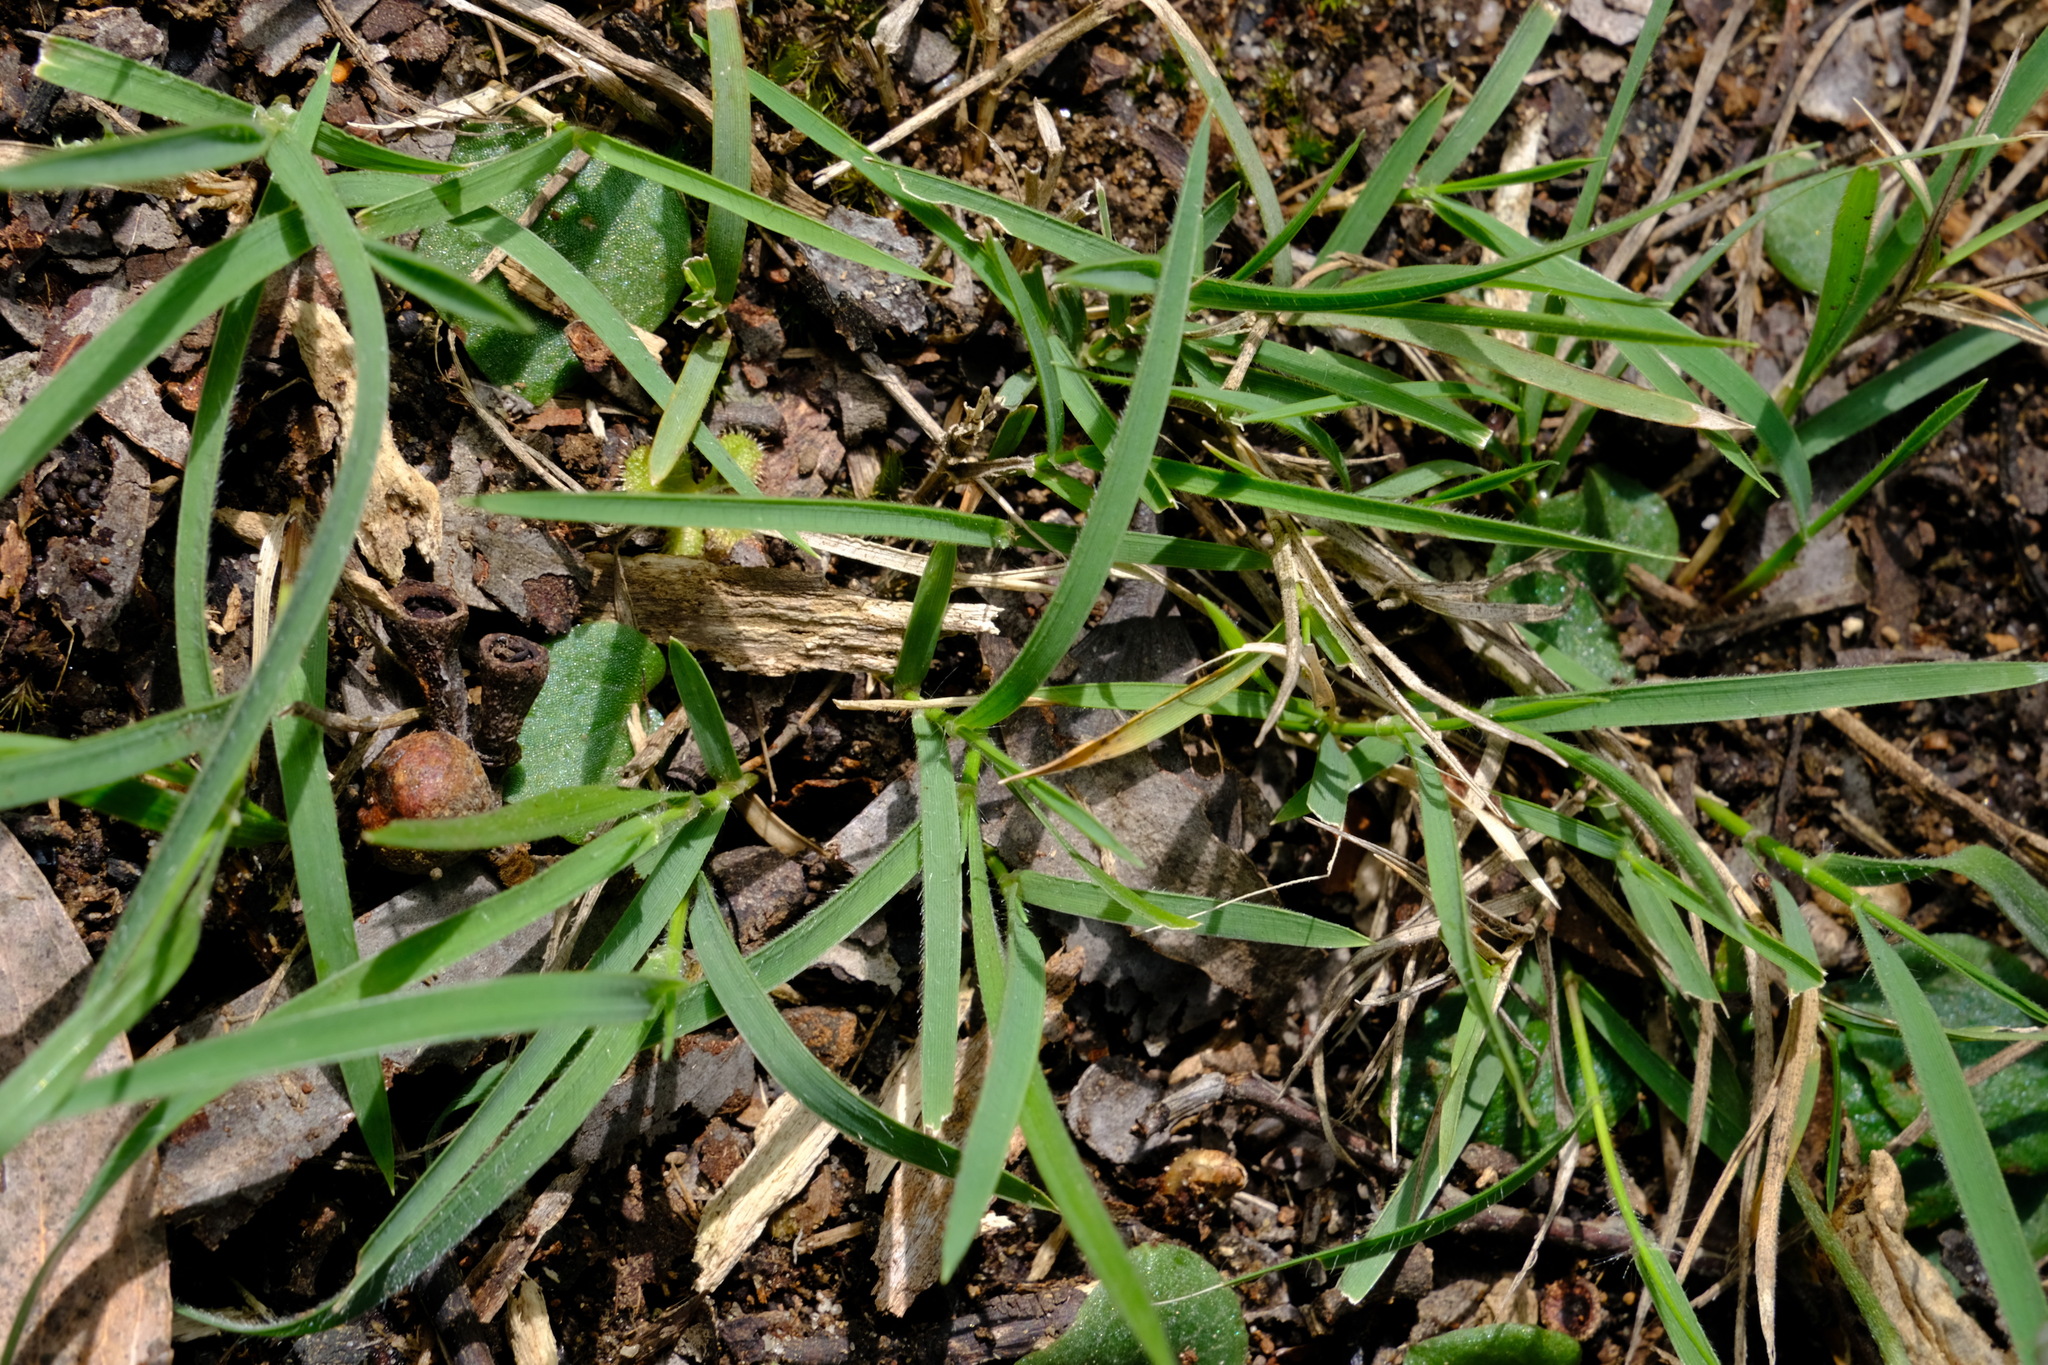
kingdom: Plantae
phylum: Tracheophyta
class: Liliopsida
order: Poales
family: Poaceae
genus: Microlaena
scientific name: Microlaena stipoides
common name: Meadow ricegrass
